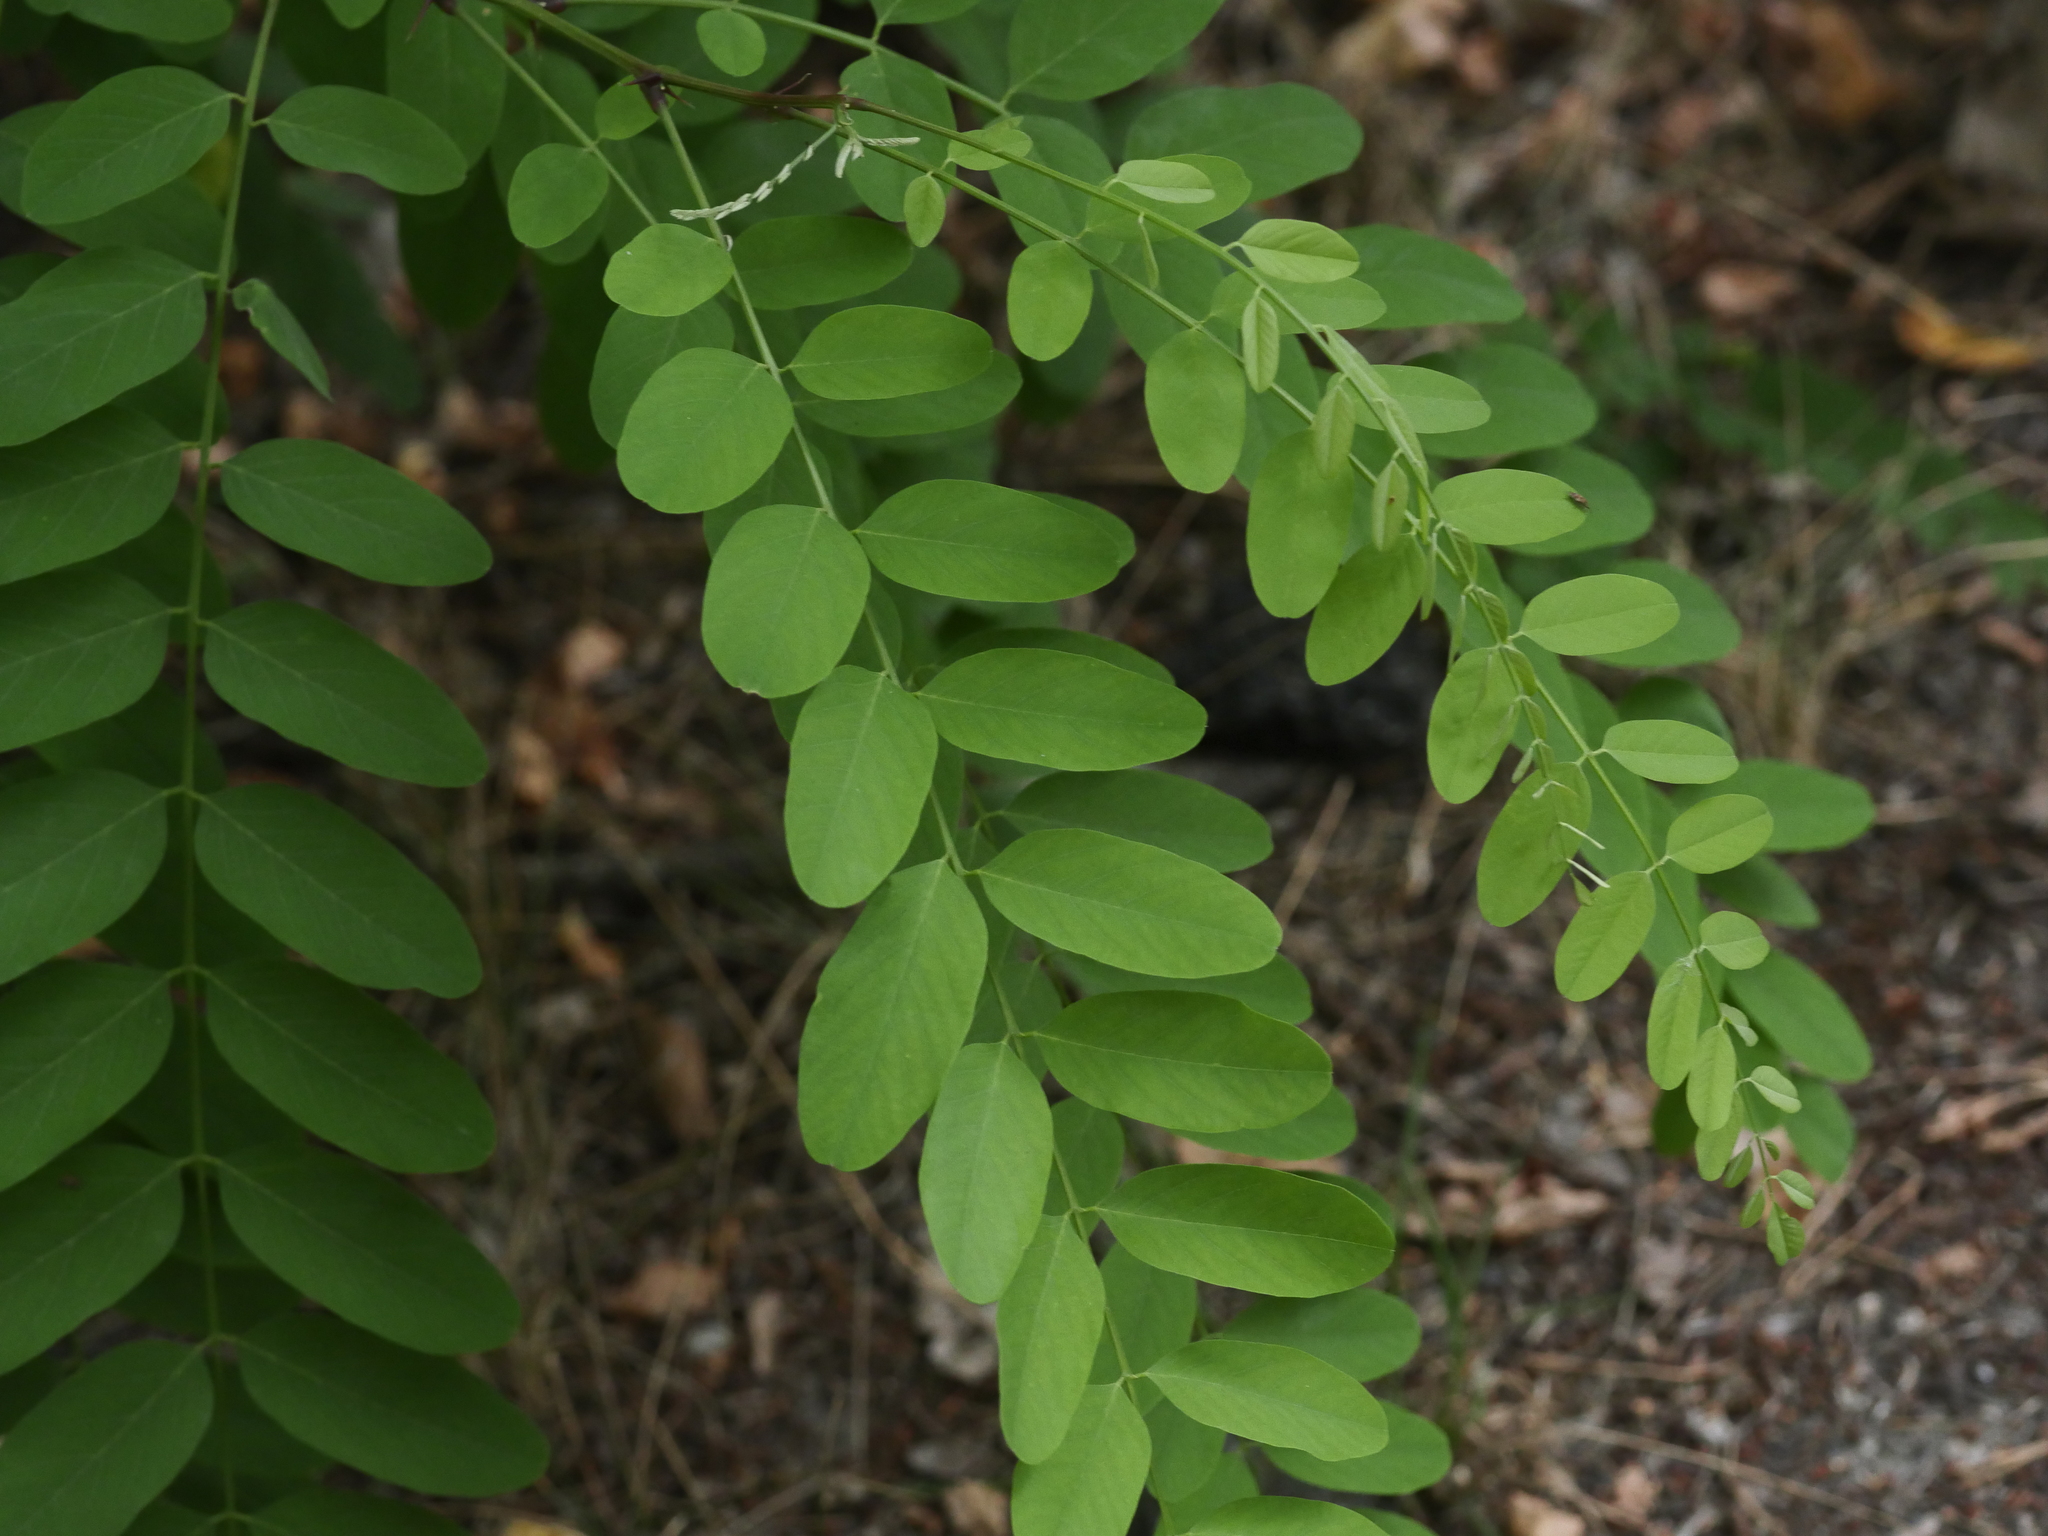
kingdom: Plantae
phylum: Tracheophyta
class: Magnoliopsida
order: Fabales
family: Fabaceae
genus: Robinia
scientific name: Robinia pseudoacacia
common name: Black locust
